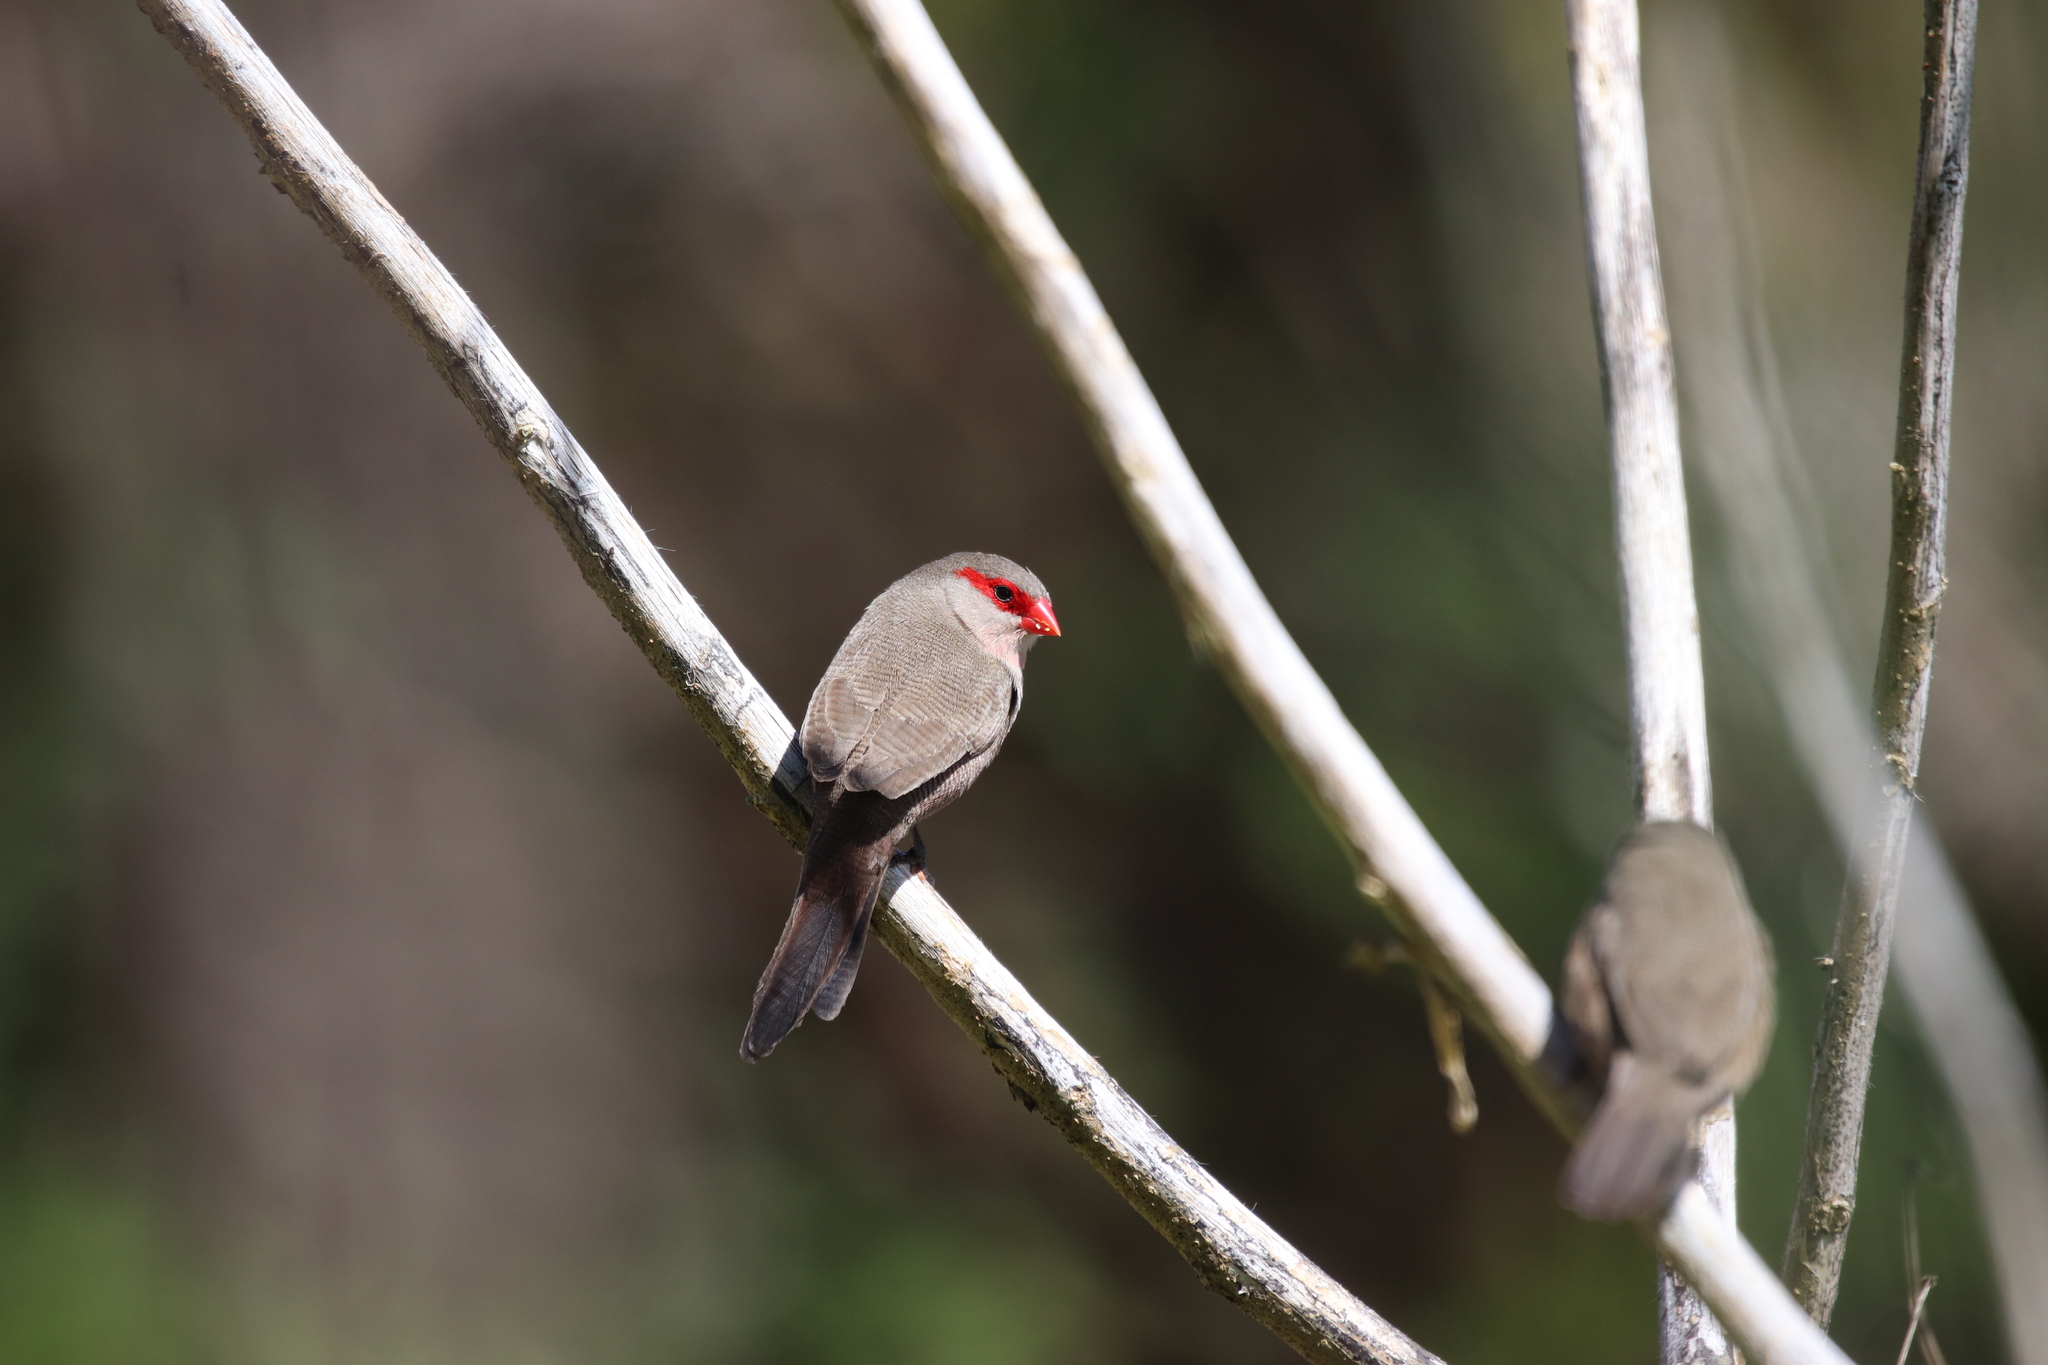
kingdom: Animalia
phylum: Chordata
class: Aves
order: Passeriformes
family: Estrildidae
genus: Estrilda
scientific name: Estrilda astrild
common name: Common waxbill
